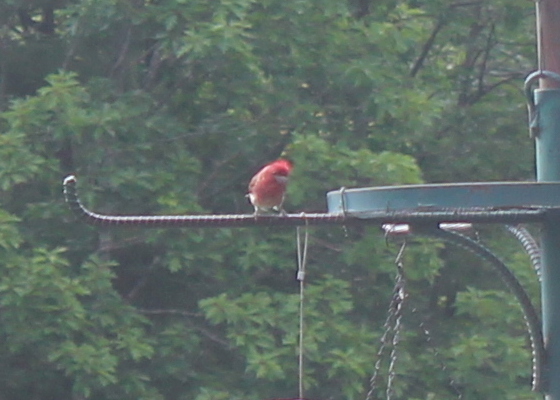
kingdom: Animalia
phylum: Chordata
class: Aves
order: Passeriformes
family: Fringillidae
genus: Haemorhous
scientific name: Haemorhous purpureus
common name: Purple finch
